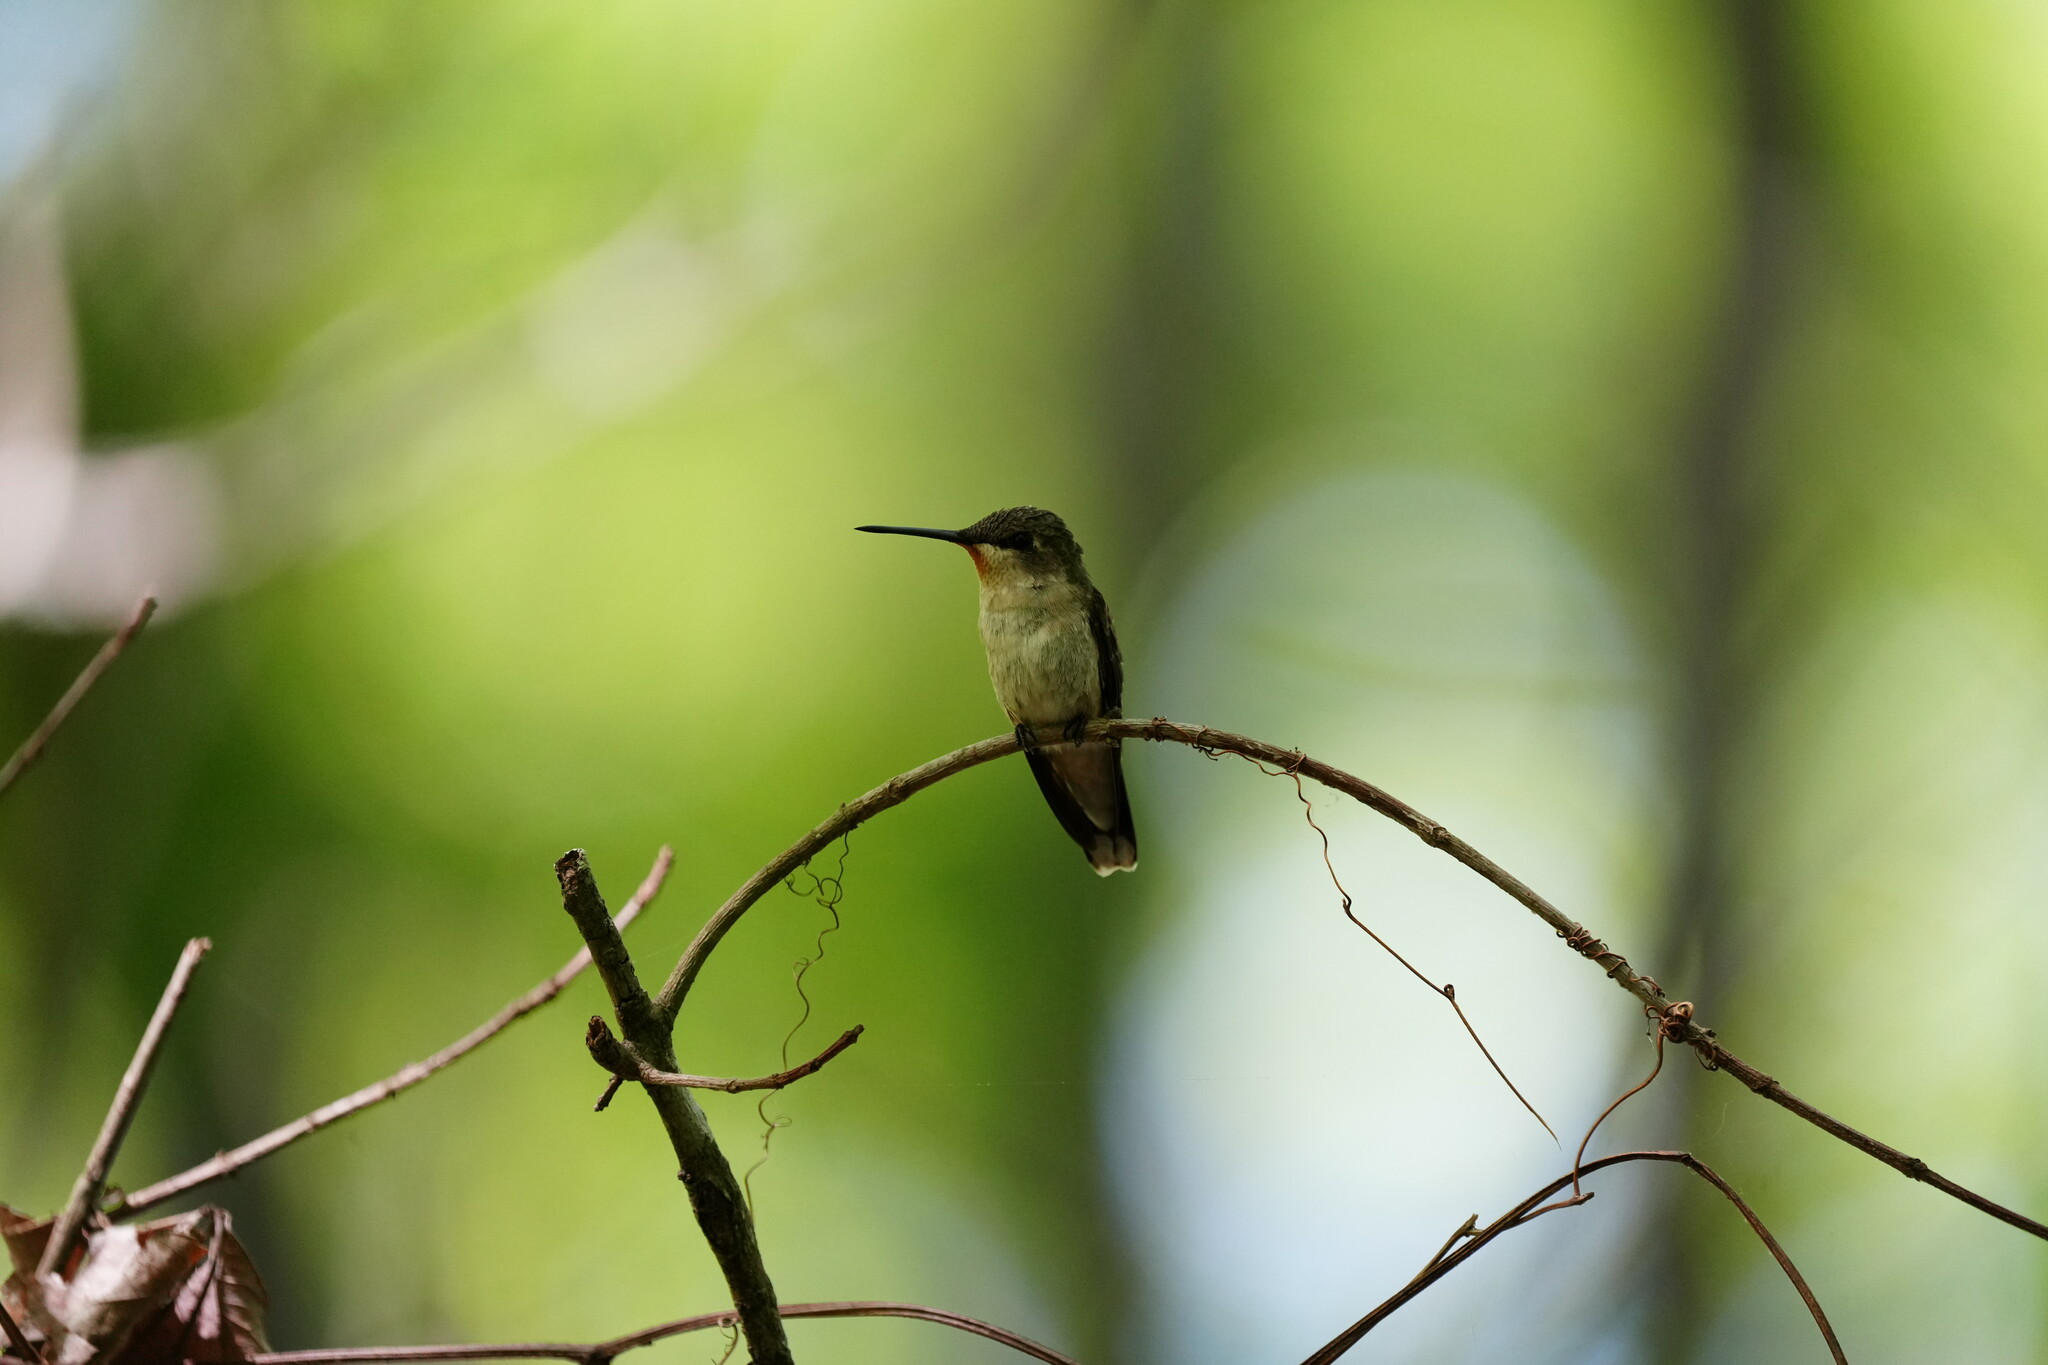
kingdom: Animalia
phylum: Chordata
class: Aves
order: Apodiformes
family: Trochilidae
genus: Archilochus
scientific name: Archilochus colubris
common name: Ruby-throated hummingbird
